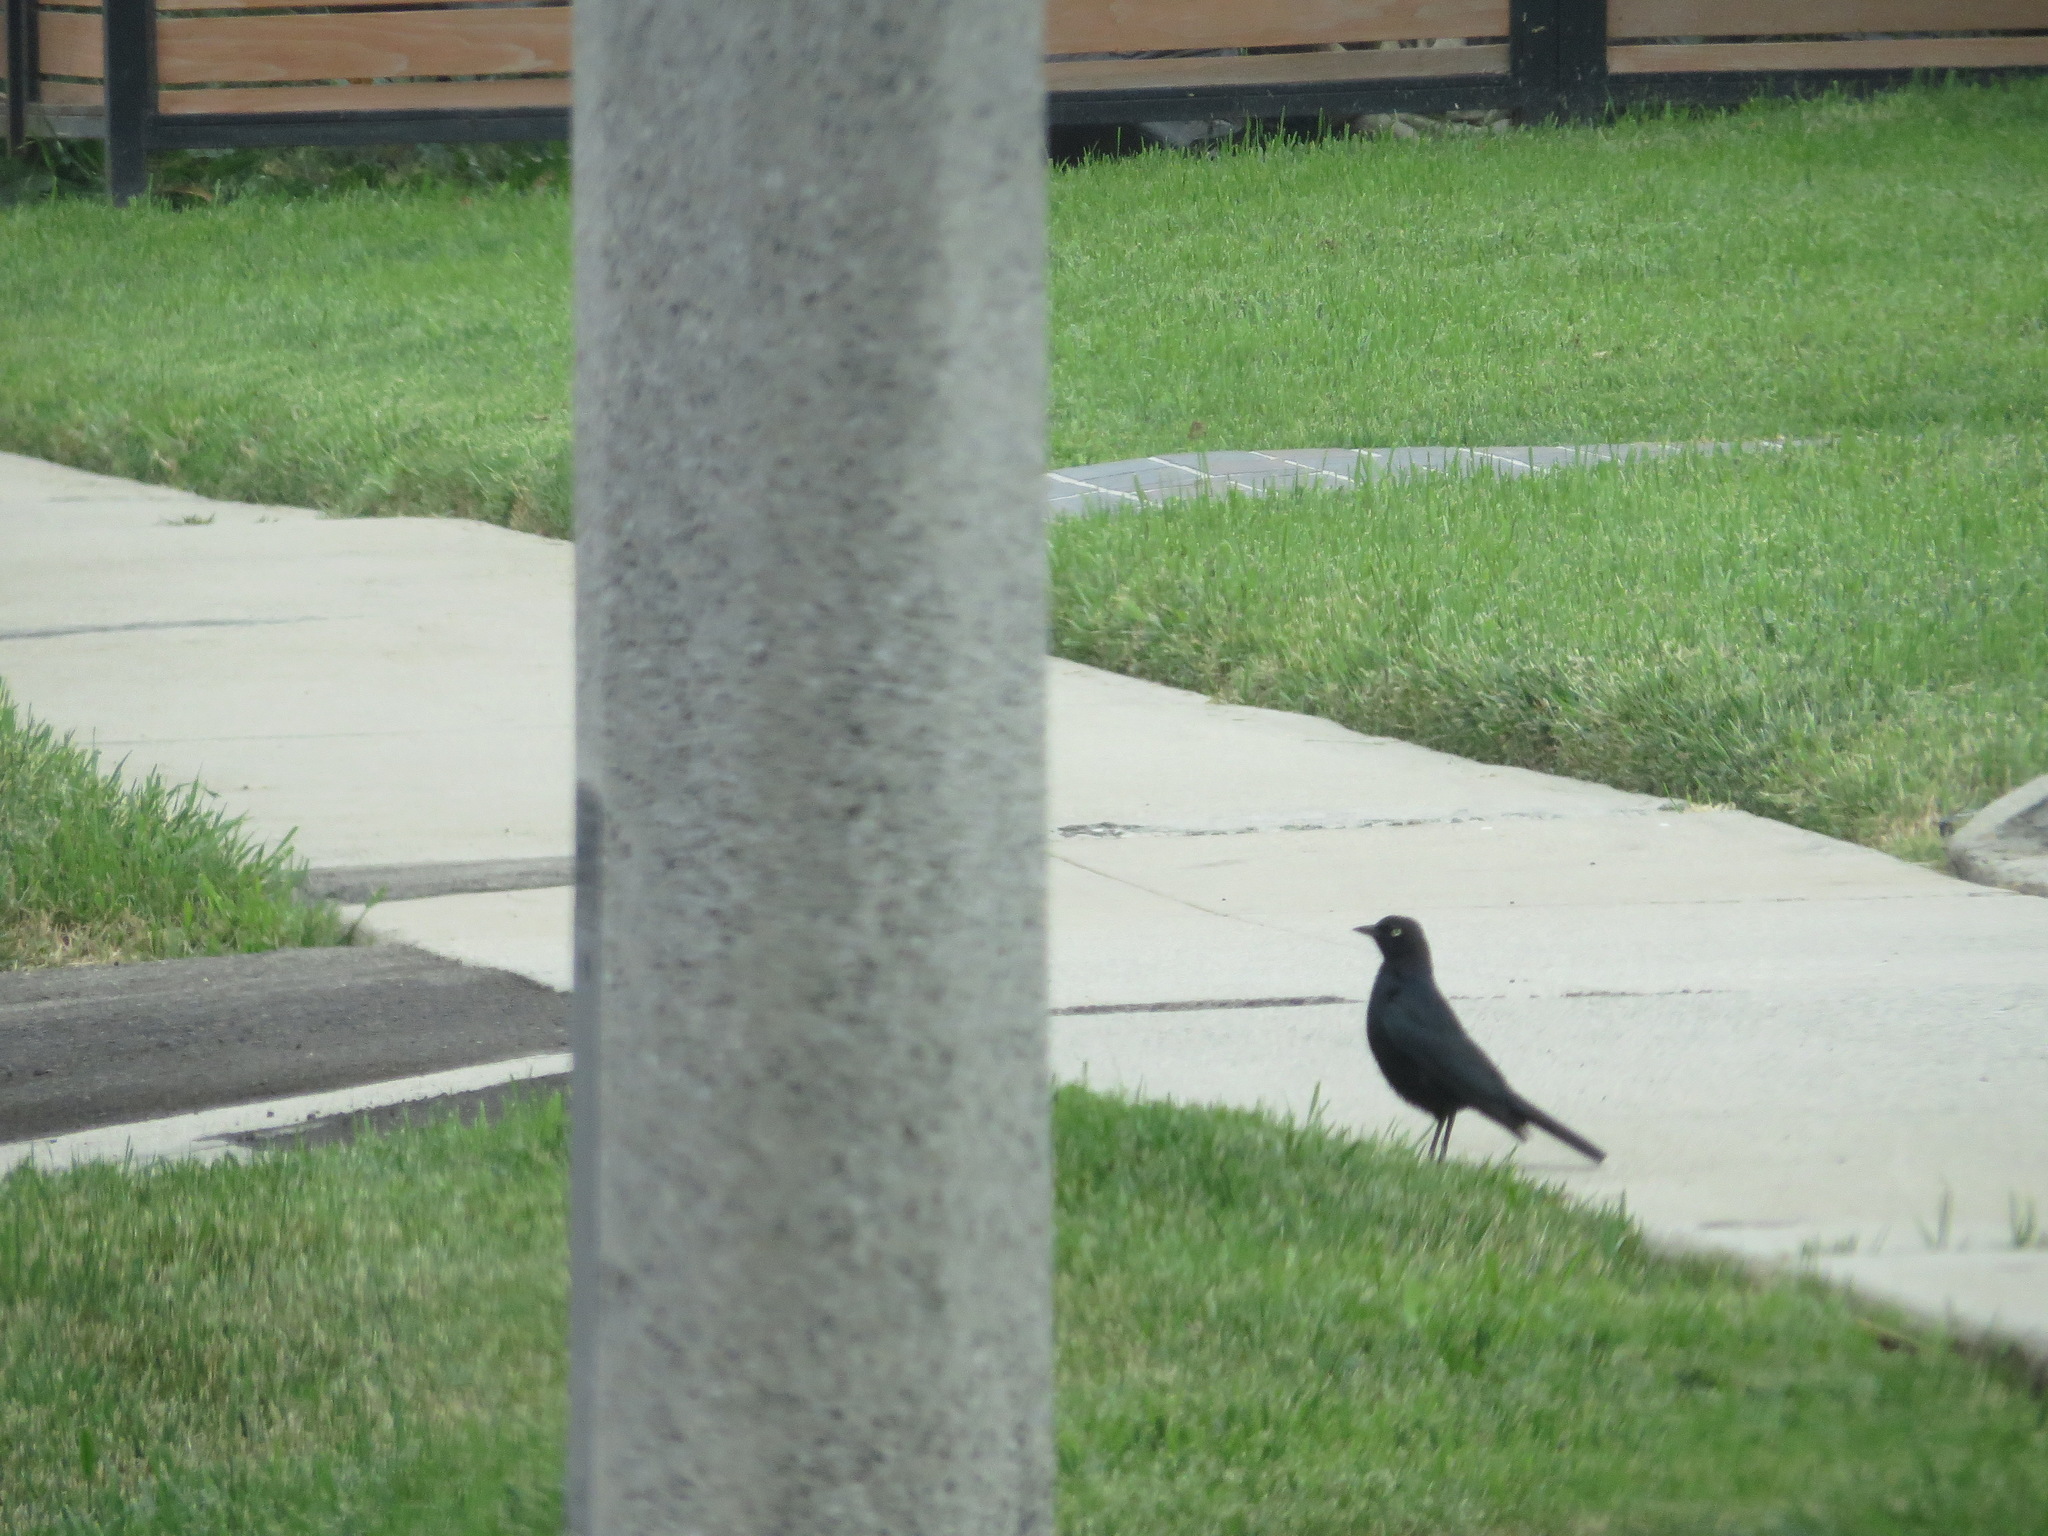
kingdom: Animalia
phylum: Chordata
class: Aves
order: Passeriformes
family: Icteridae
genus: Euphagus
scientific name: Euphagus cyanocephalus
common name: Brewer's blackbird
